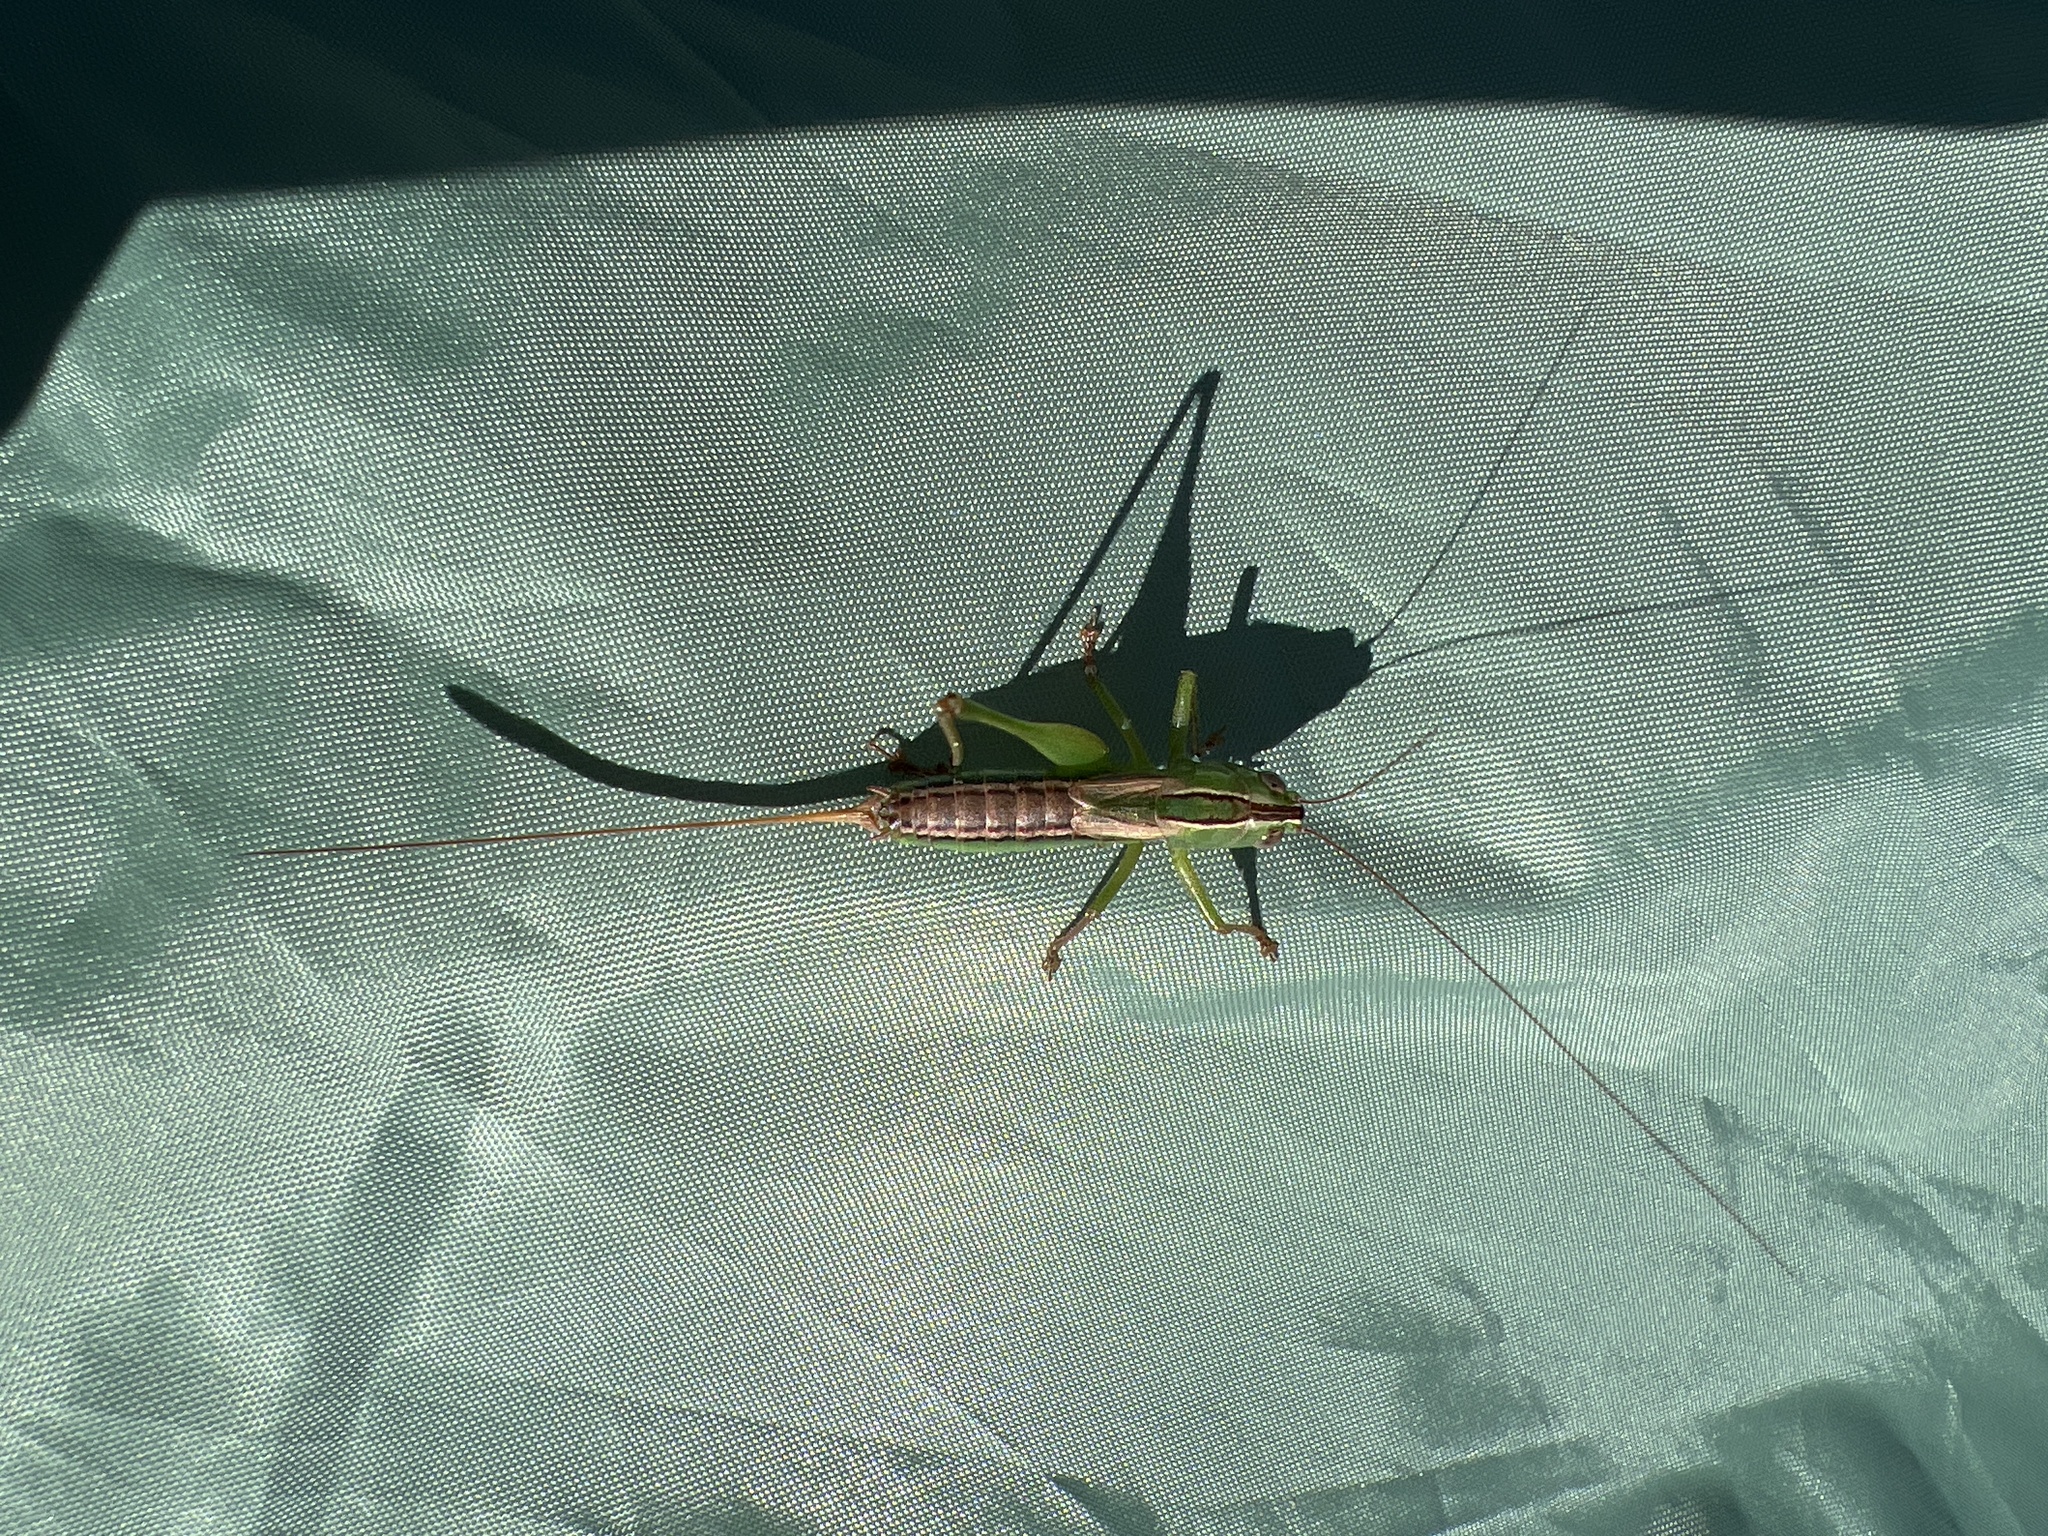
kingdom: Animalia
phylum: Arthropoda
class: Insecta
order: Orthoptera
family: Tettigoniidae
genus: Conocephalus
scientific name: Conocephalus strictus
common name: Straight-lanced katydid
